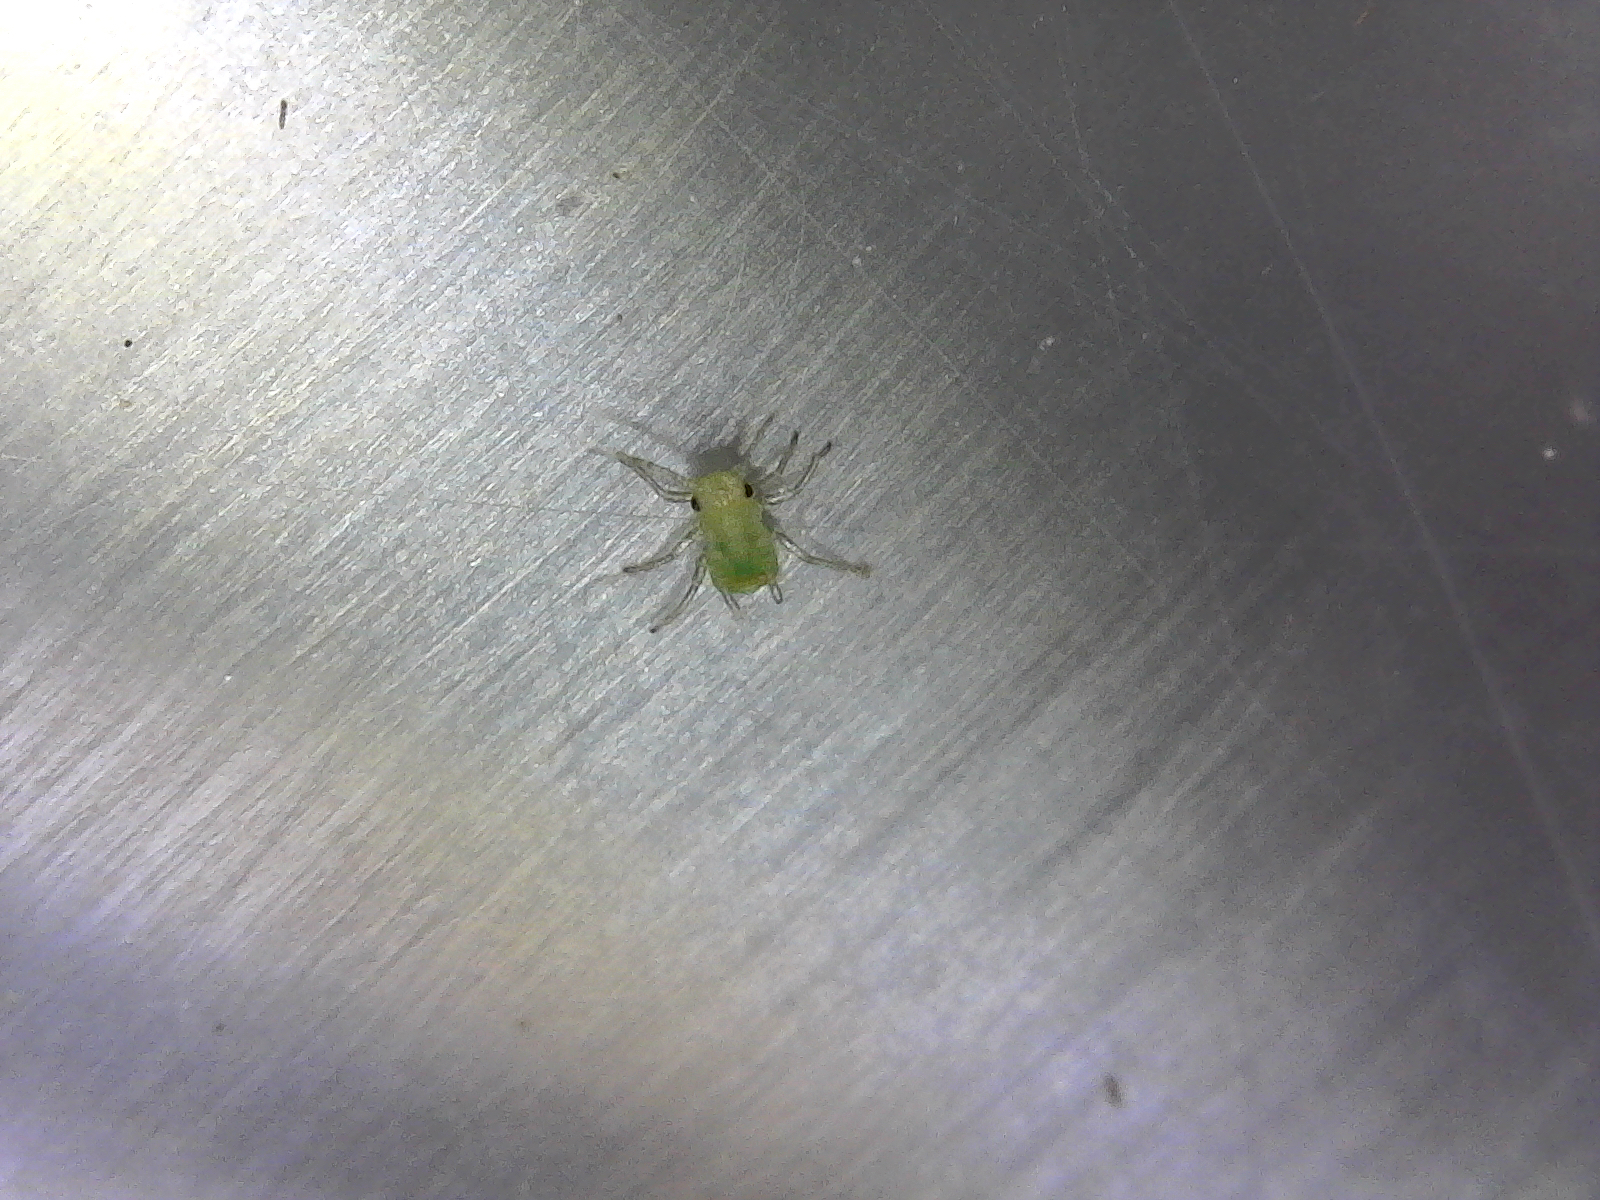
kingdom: Animalia
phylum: Arthropoda
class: Insecta
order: Hemiptera
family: Aphididae
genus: Acyrthosiphon
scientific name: Acyrthosiphon pisum
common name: Pea aphid
